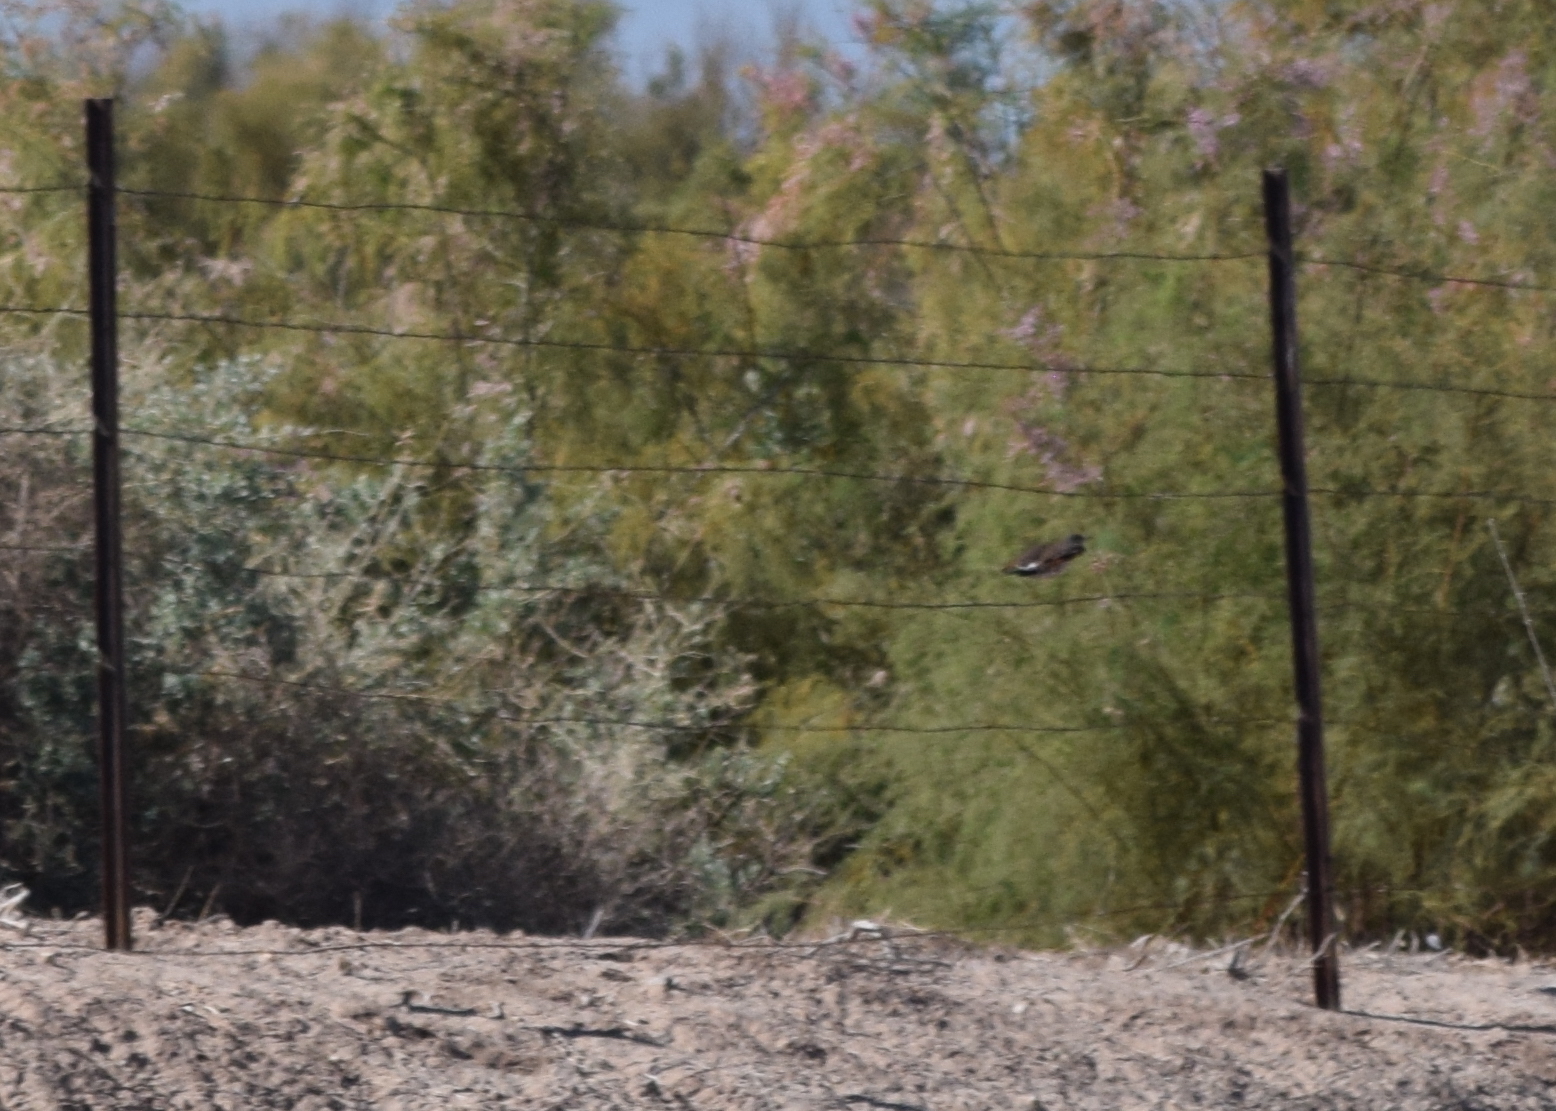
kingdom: Animalia
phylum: Chordata
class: Aves
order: Piciformes
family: Picidae
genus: Colaptes
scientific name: Colaptes auratus
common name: Northern flicker
